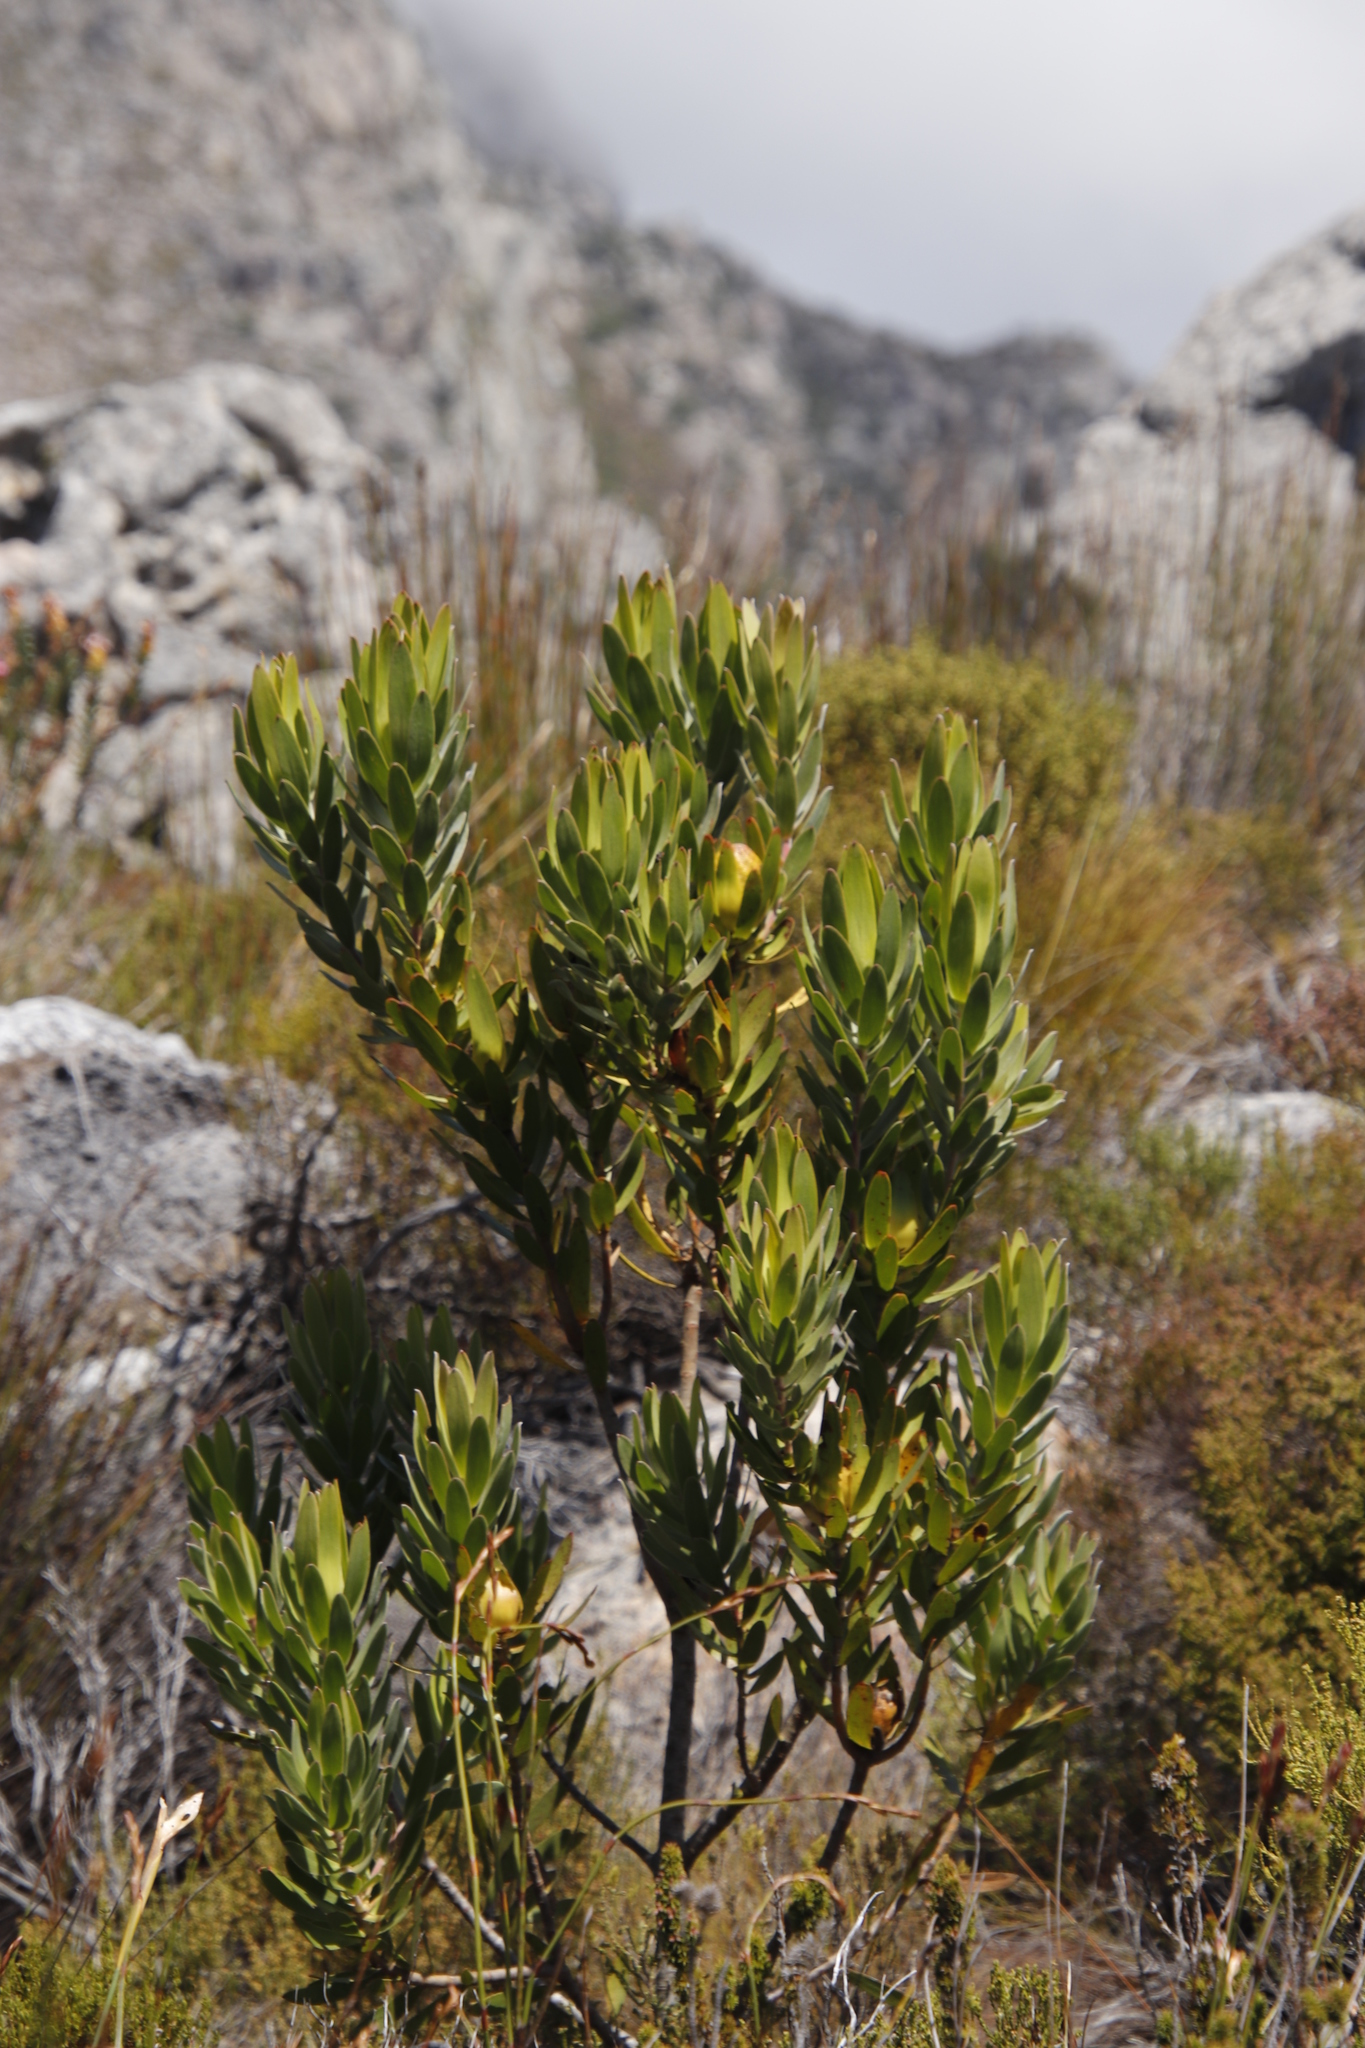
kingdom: Plantae
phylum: Tracheophyta
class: Magnoliopsida
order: Proteales
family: Proteaceae
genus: Leucadendron
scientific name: Leucadendron laureolum
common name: Golden sunshinebush
